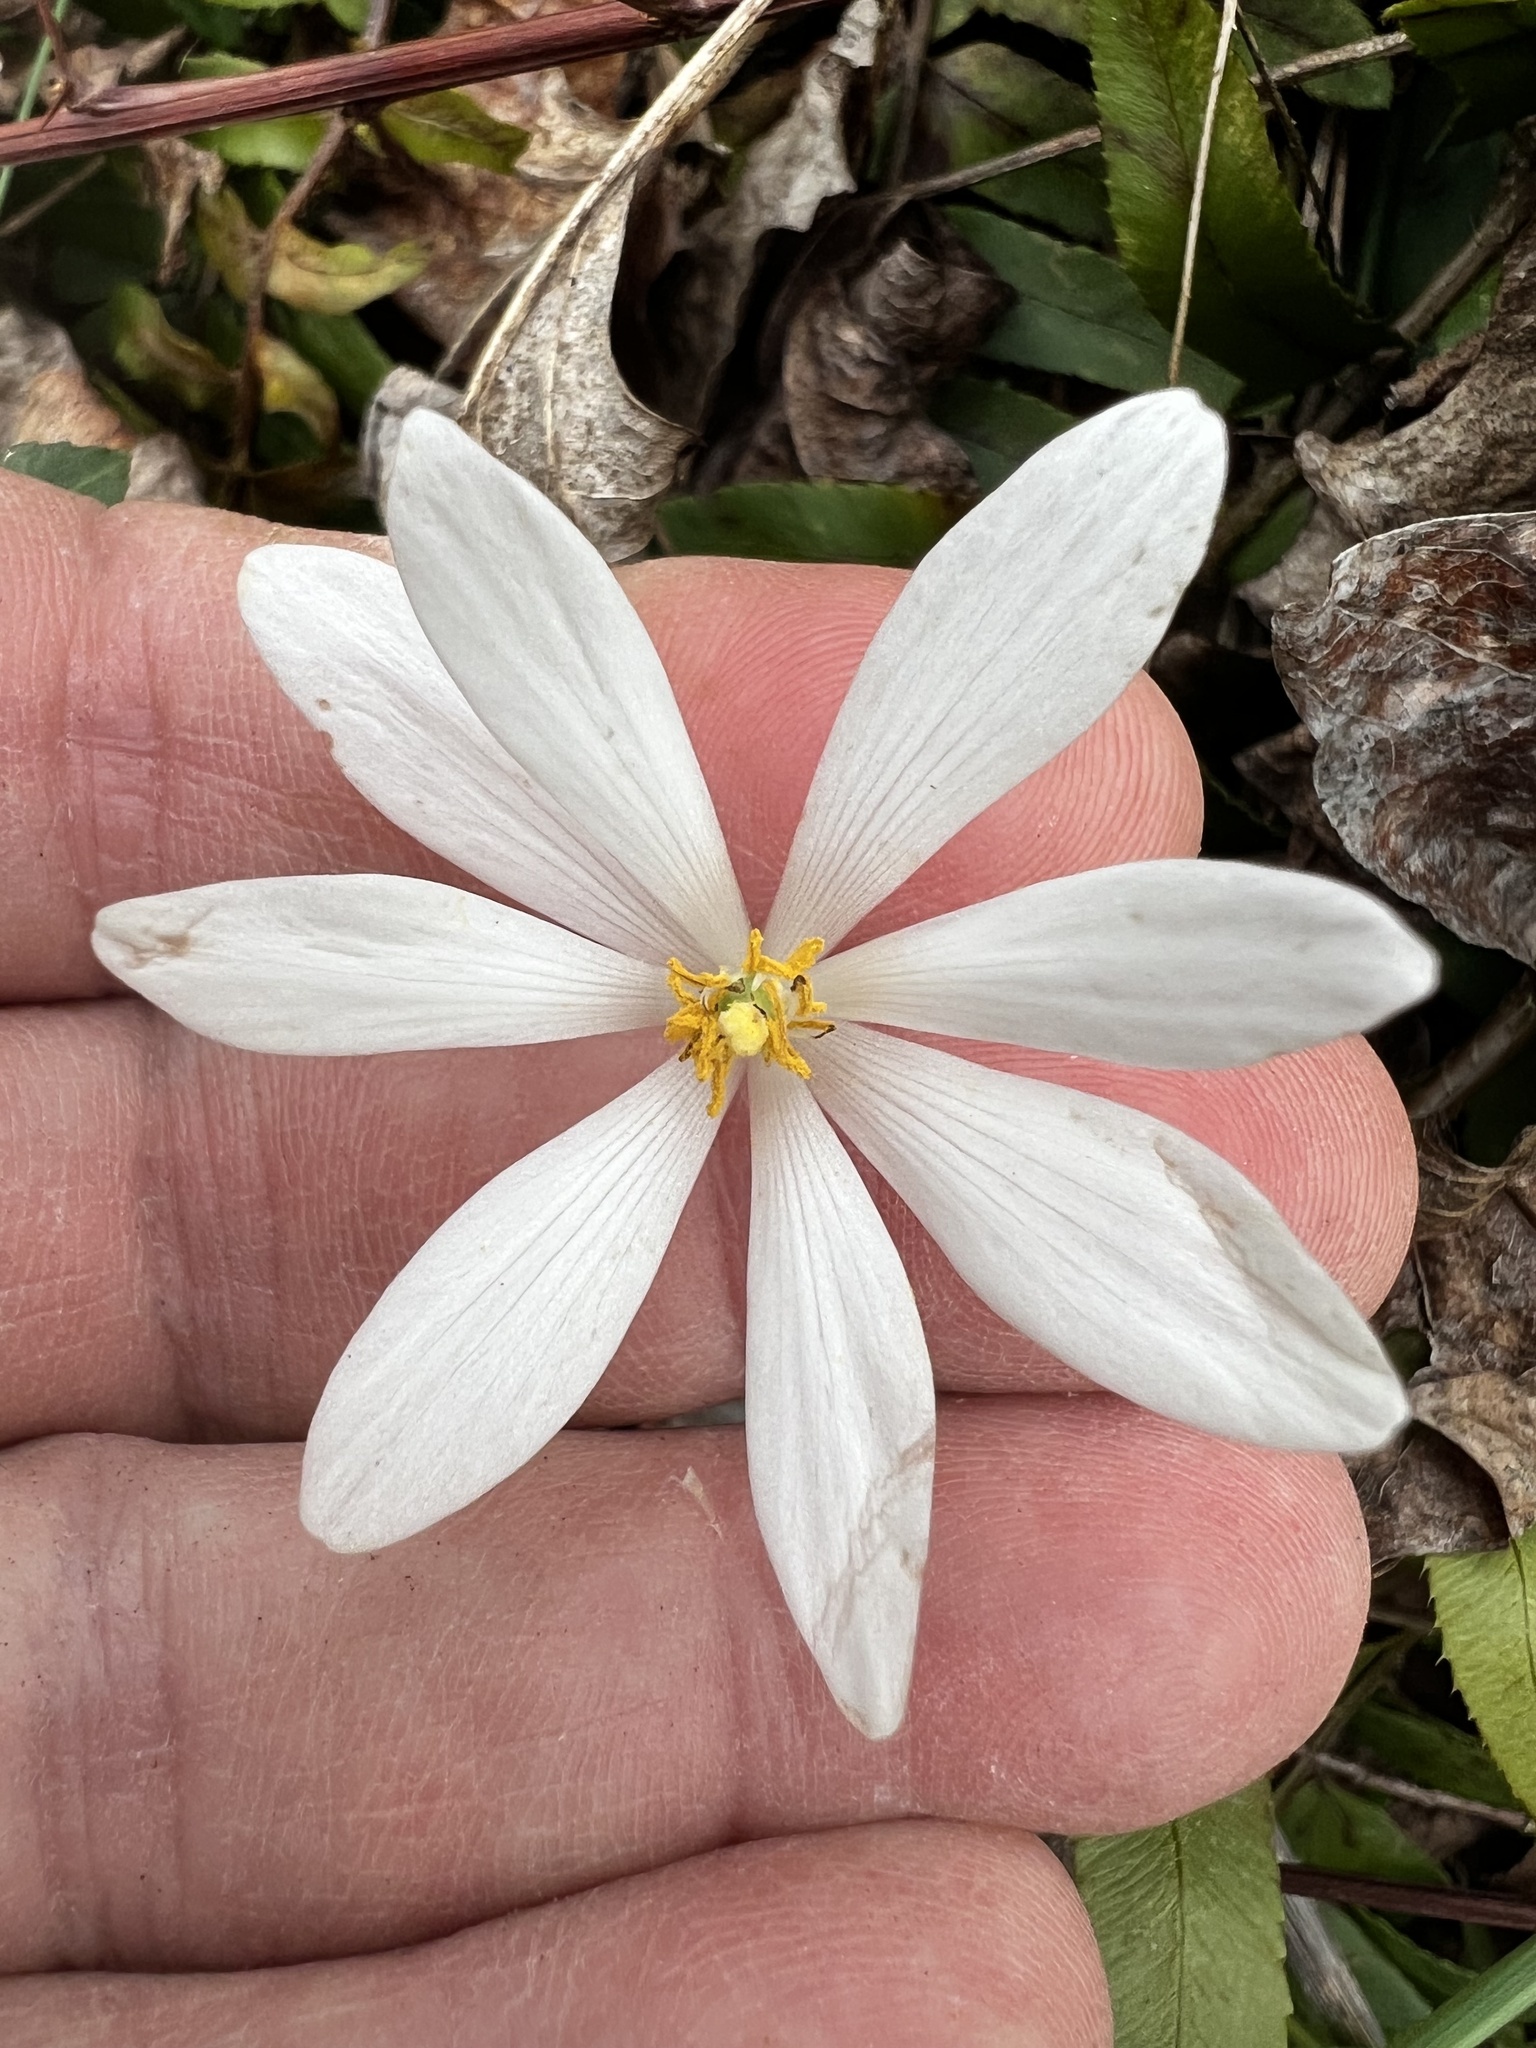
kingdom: Plantae
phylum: Tracheophyta
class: Magnoliopsida
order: Ranunculales
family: Papaveraceae
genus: Sanguinaria
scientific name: Sanguinaria canadensis
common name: Bloodroot
